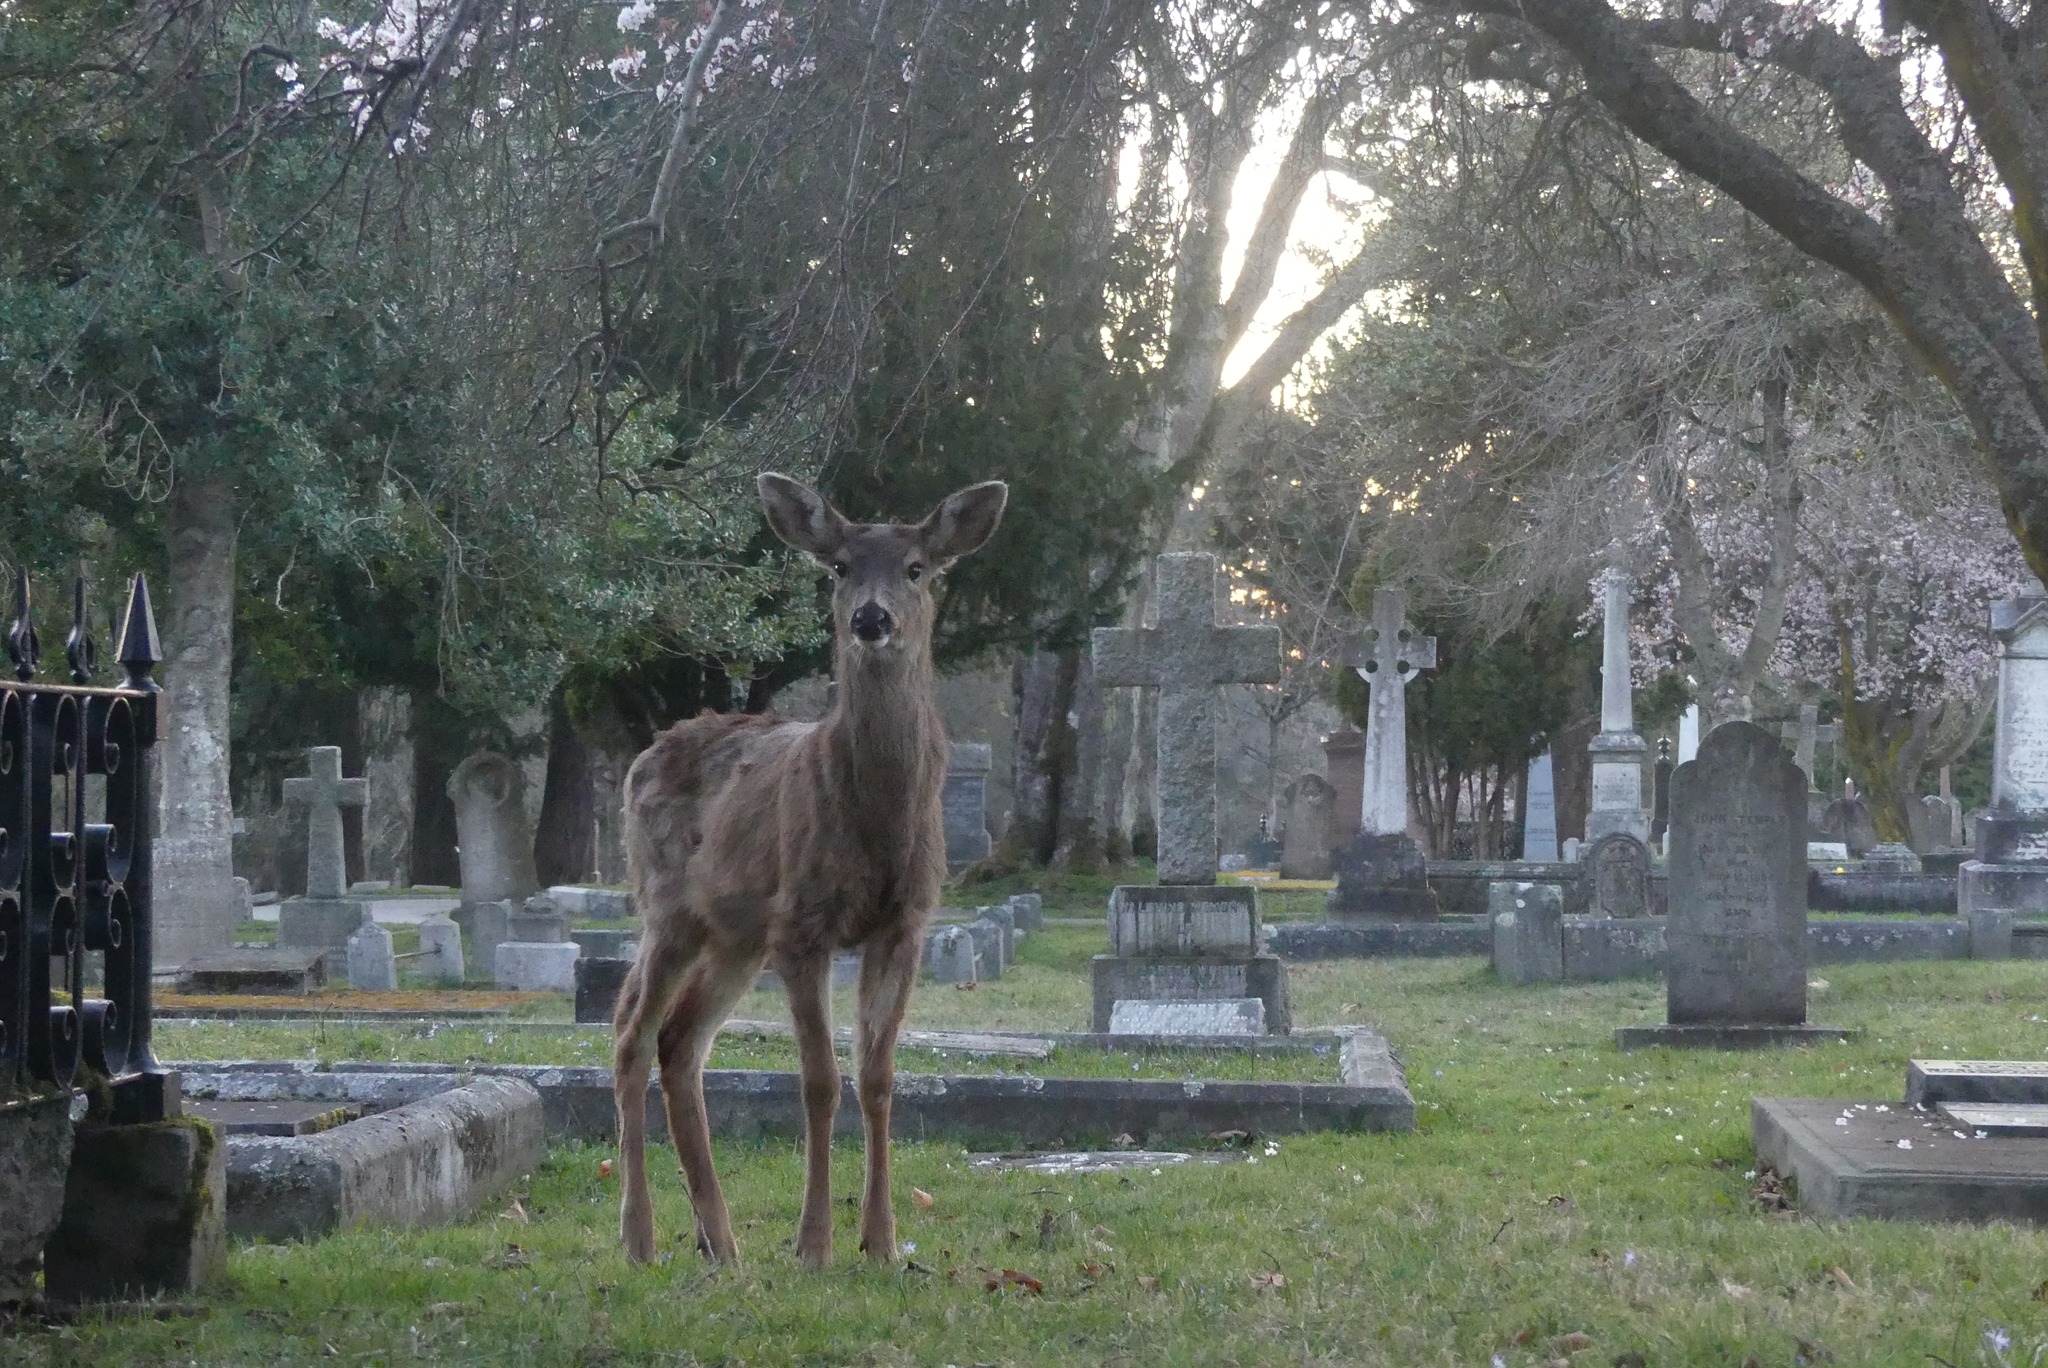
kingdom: Animalia
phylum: Chordata
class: Mammalia
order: Artiodactyla
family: Cervidae
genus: Odocoileus
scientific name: Odocoileus hemionus
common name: Mule deer
